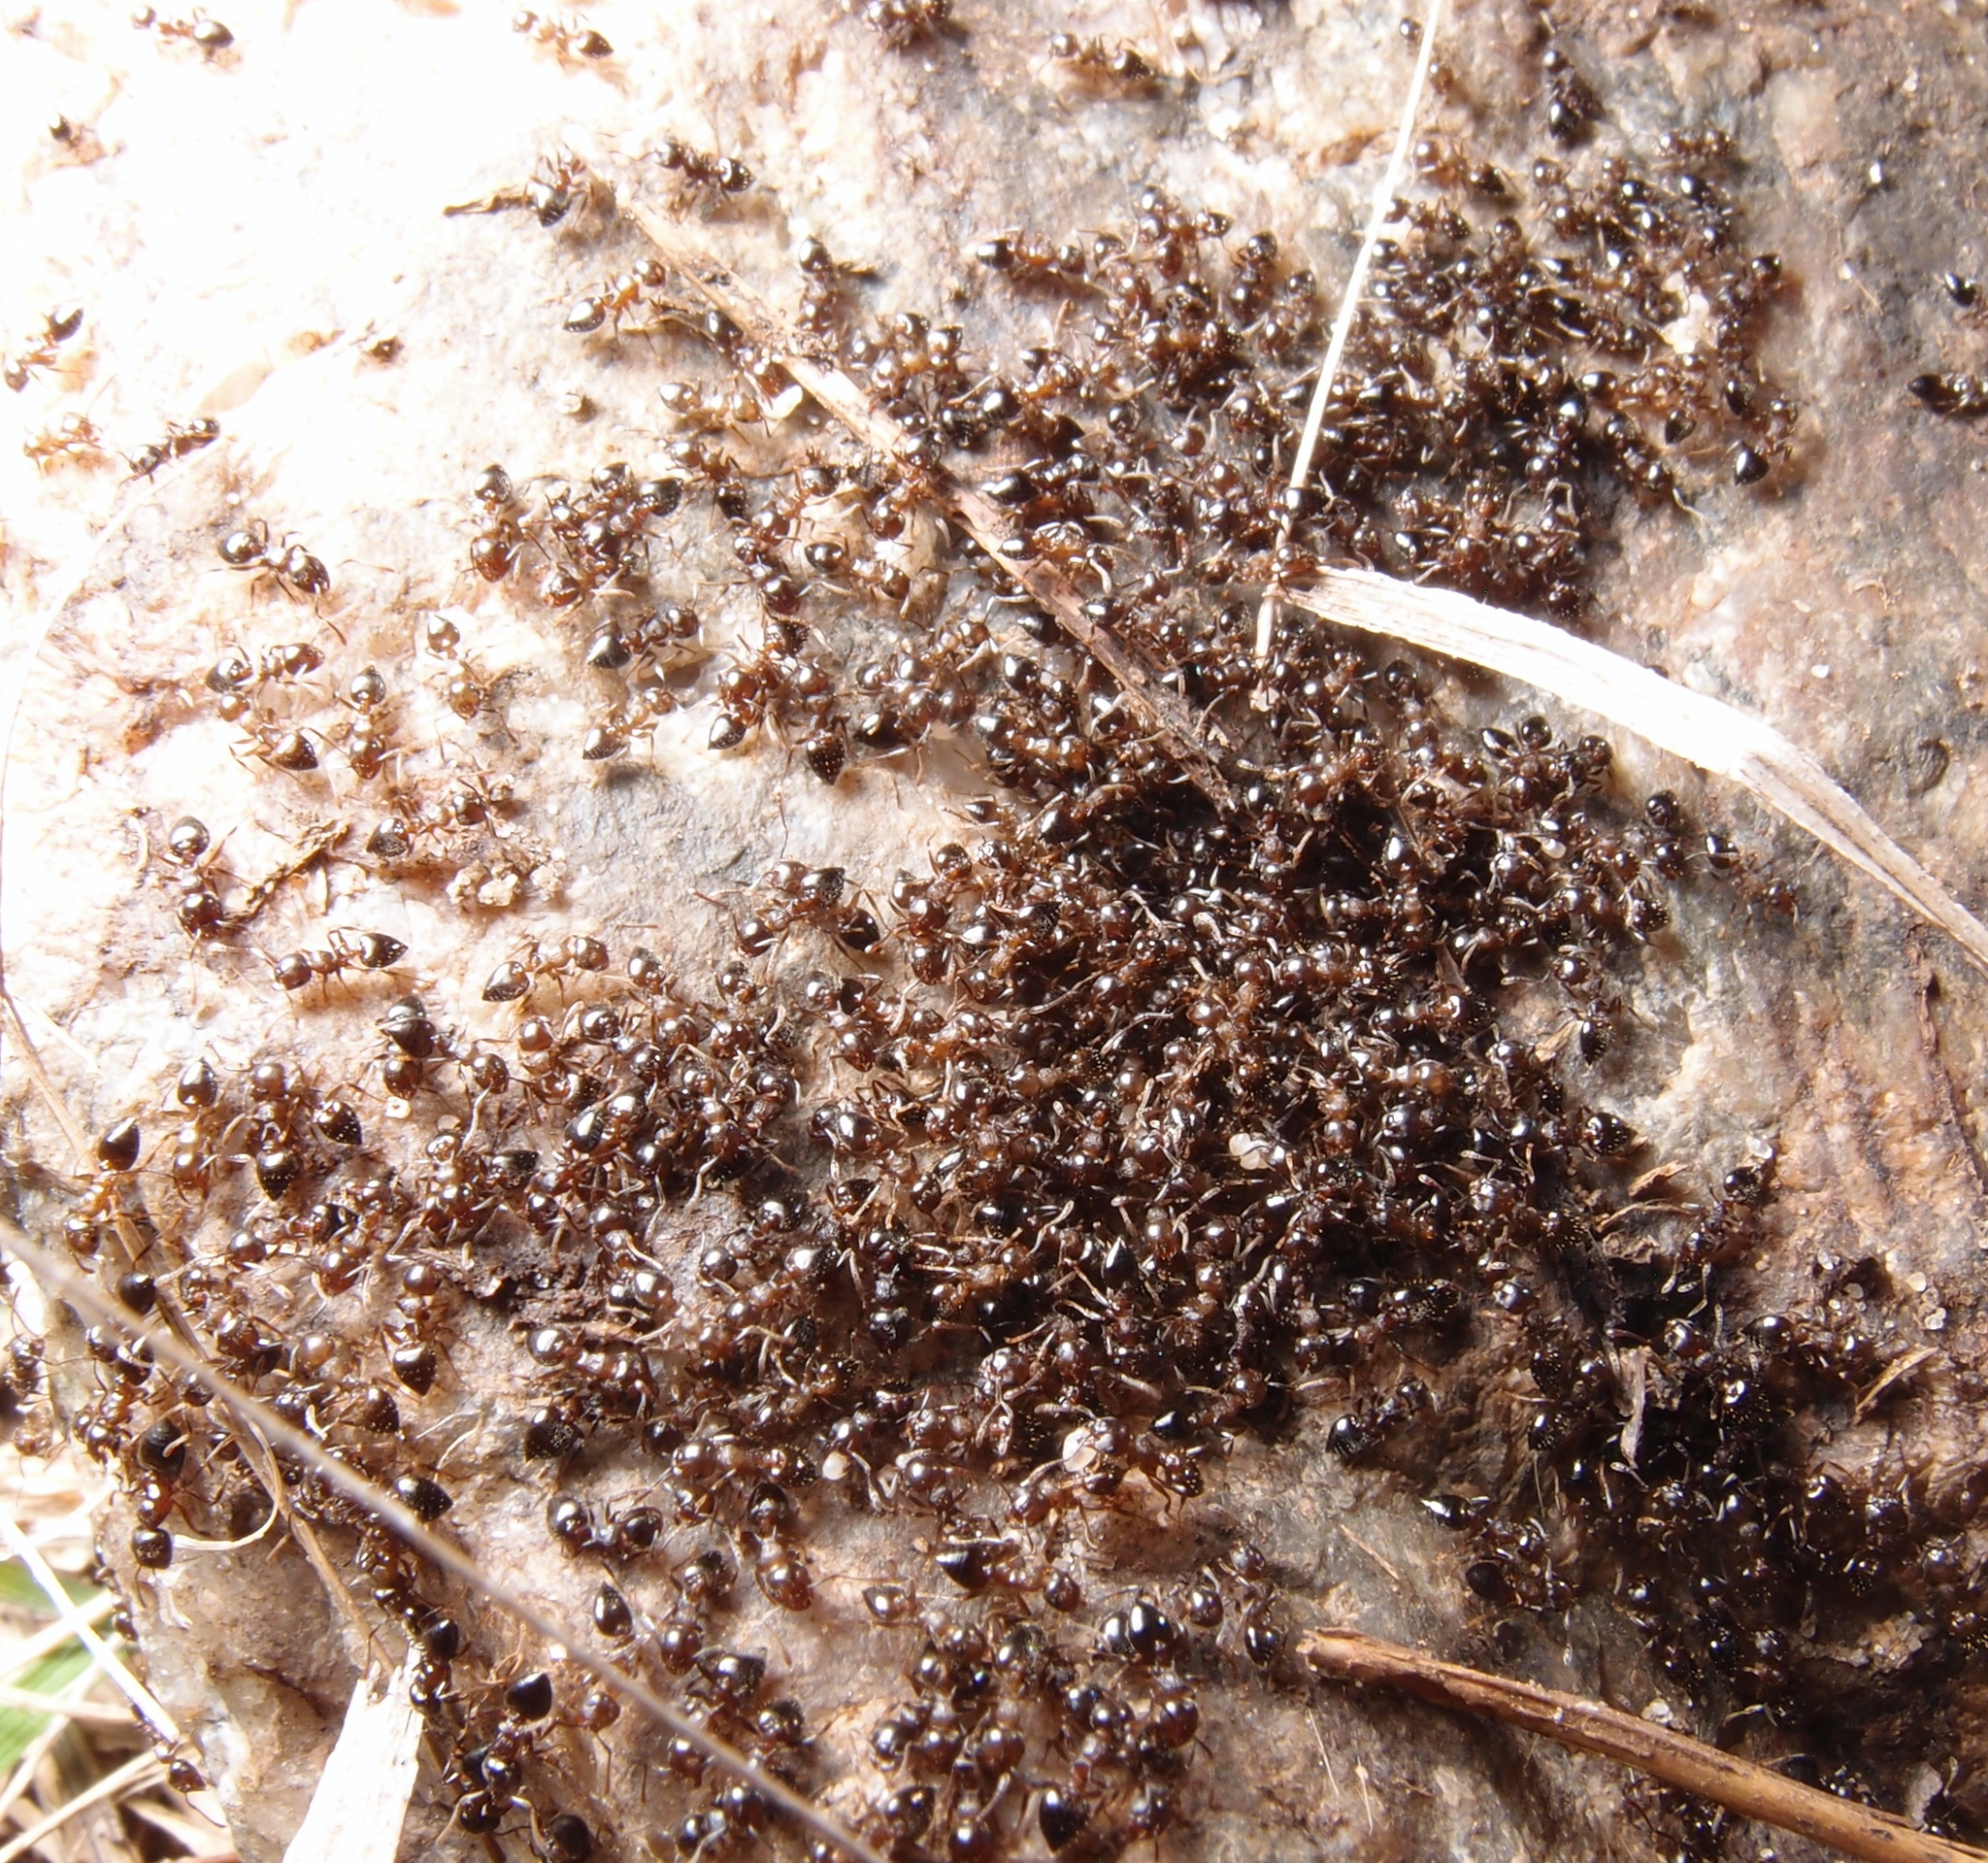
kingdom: Animalia
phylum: Arthropoda
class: Insecta
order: Hymenoptera
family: Formicidae
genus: Crematogaster
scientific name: Crematogaster
